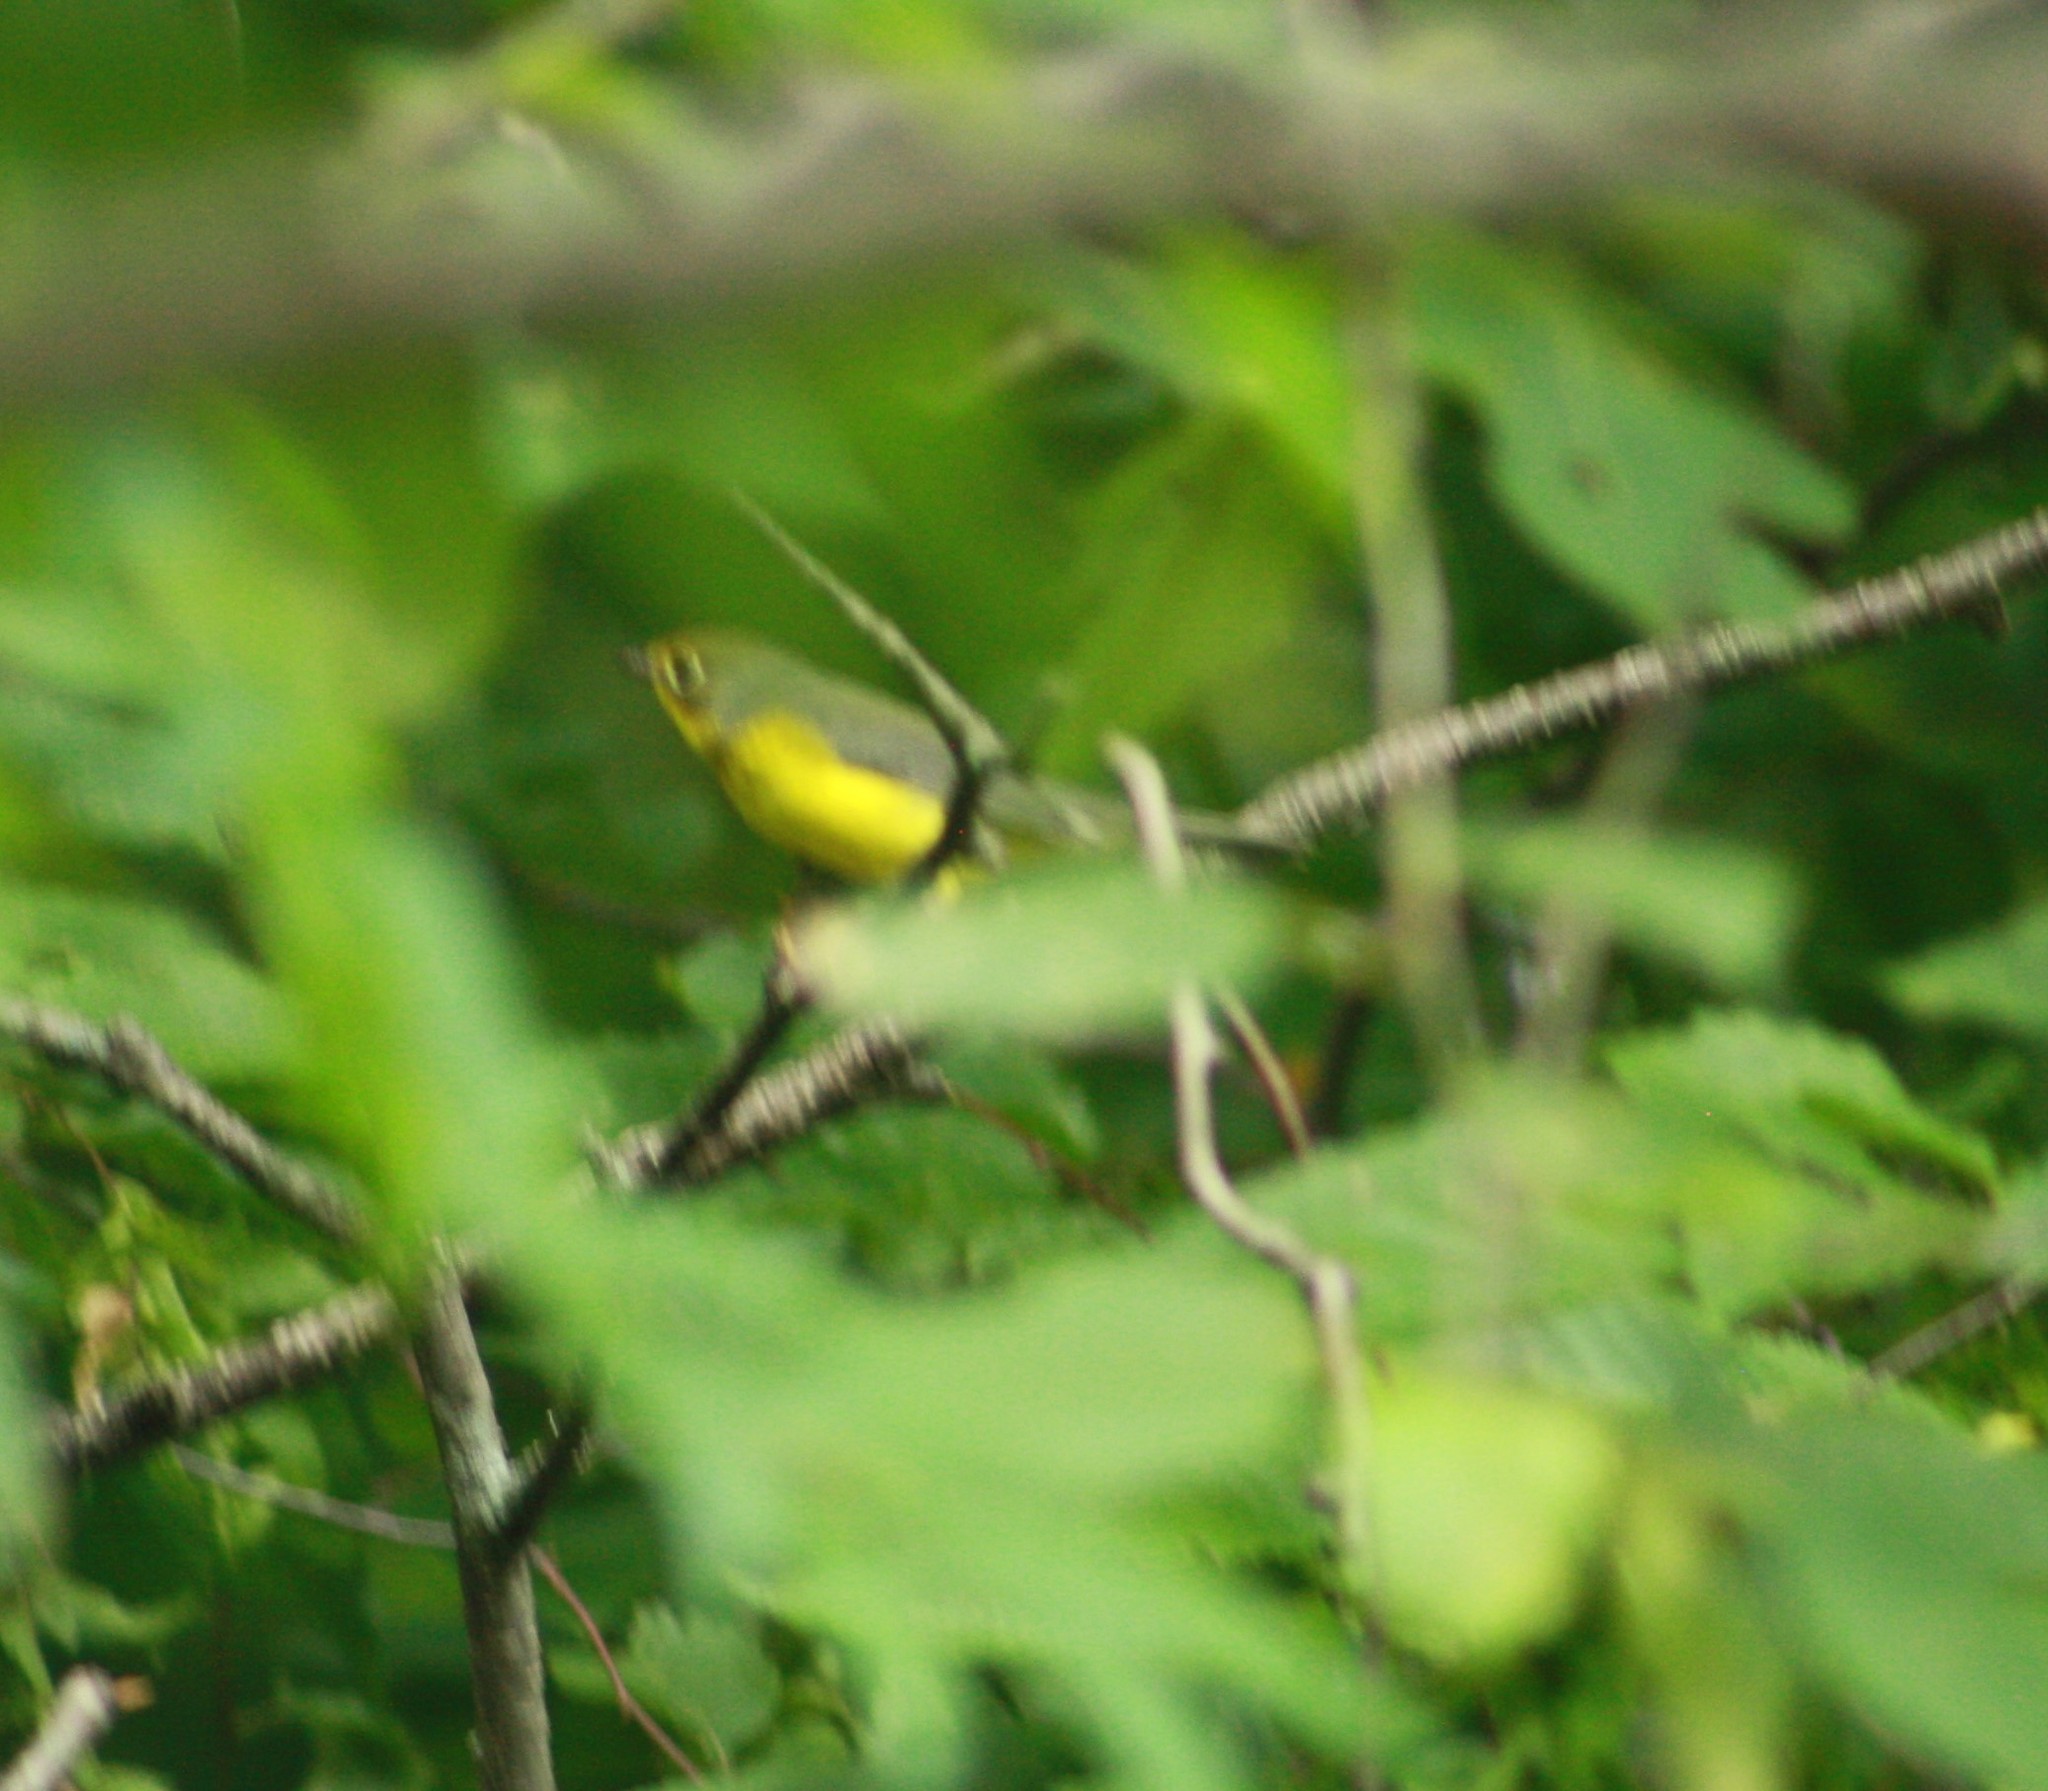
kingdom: Animalia
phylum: Chordata
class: Aves
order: Passeriformes
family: Parulidae
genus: Cardellina
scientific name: Cardellina canadensis
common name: Canada warbler
